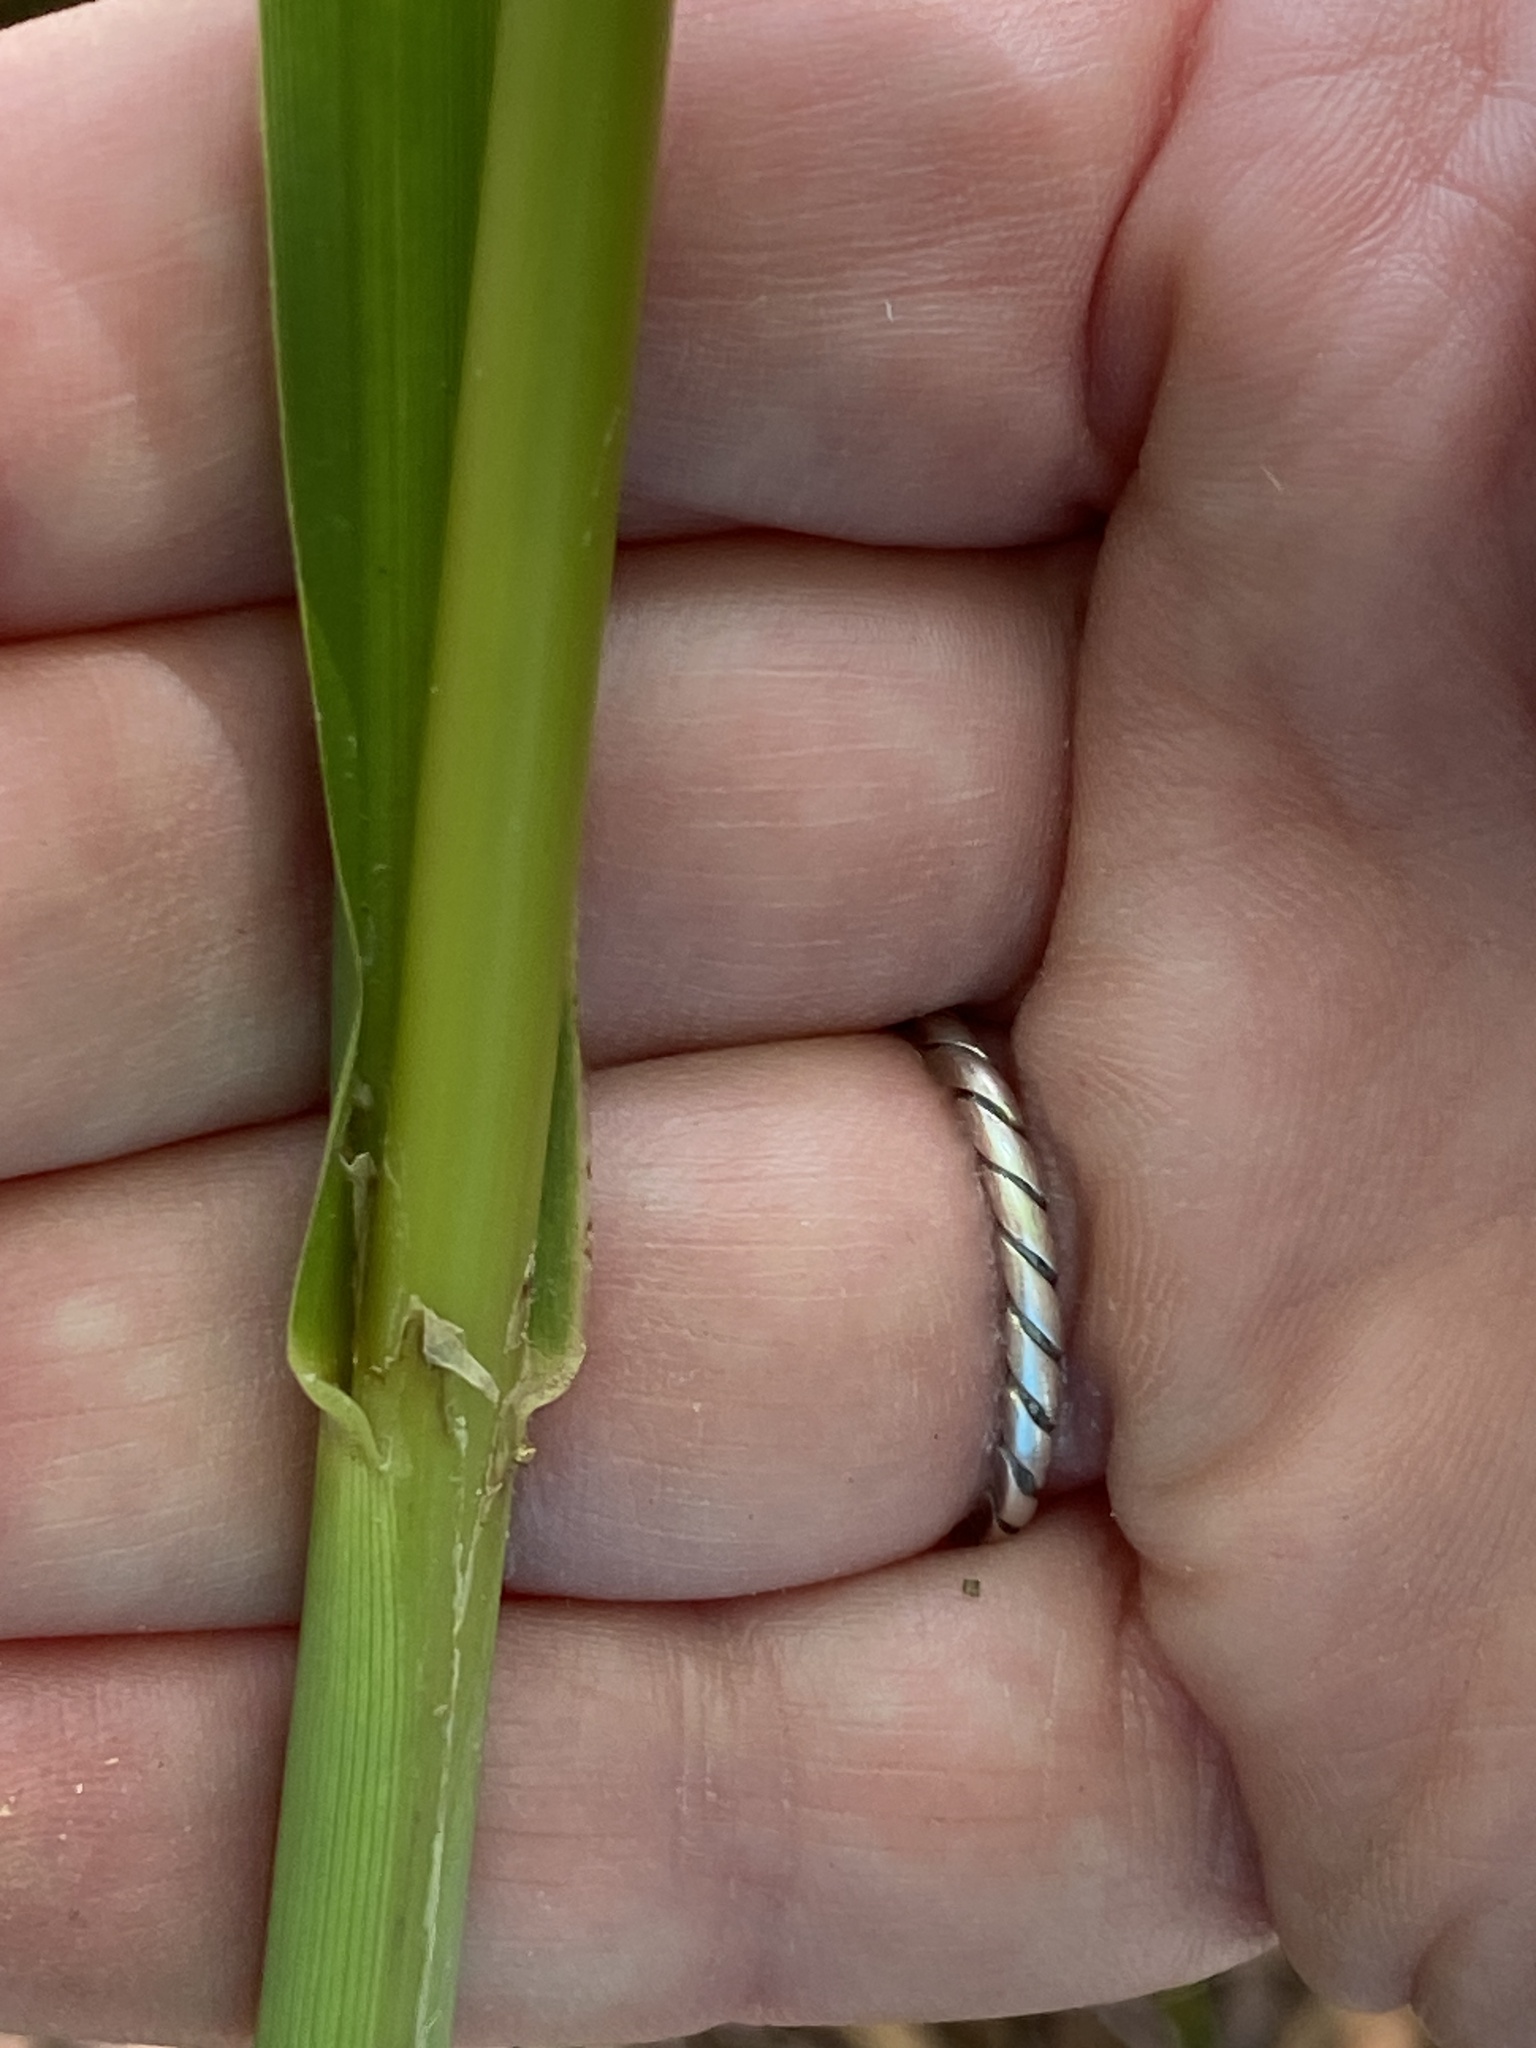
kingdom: Plantae
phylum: Tracheophyta
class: Liliopsida
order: Poales
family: Poaceae
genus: Zizaniopsis
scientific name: Zizaniopsis miliacea
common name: Giant-cutgrass
